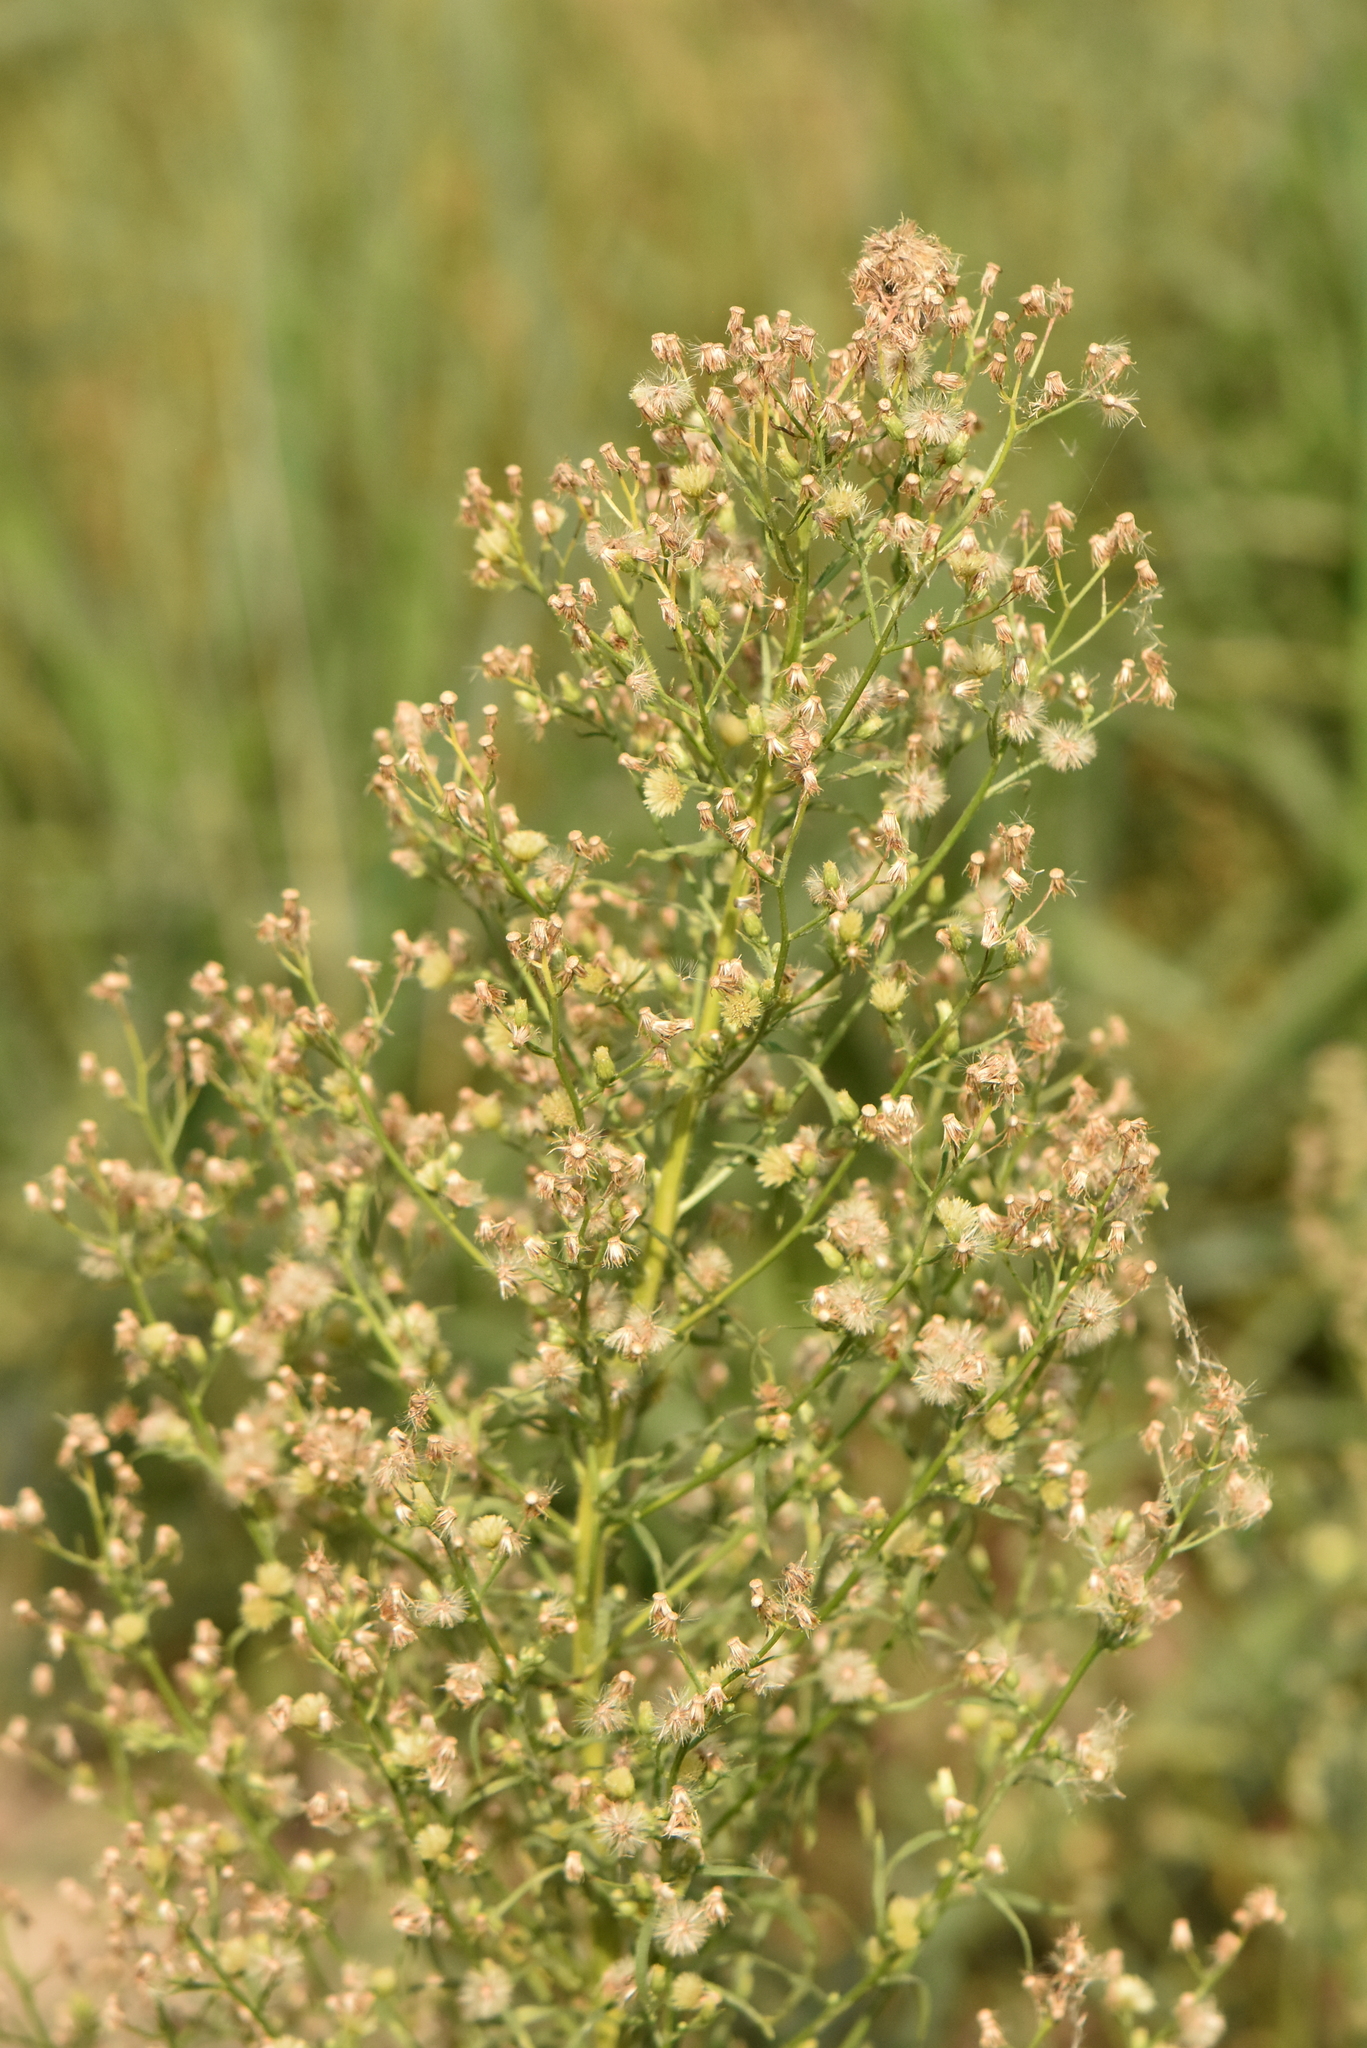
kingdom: Plantae
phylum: Tracheophyta
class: Magnoliopsida
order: Asterales
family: Asteraceae
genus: Erigeron
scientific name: Erigeron canadensis
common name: Canadian fleabane
